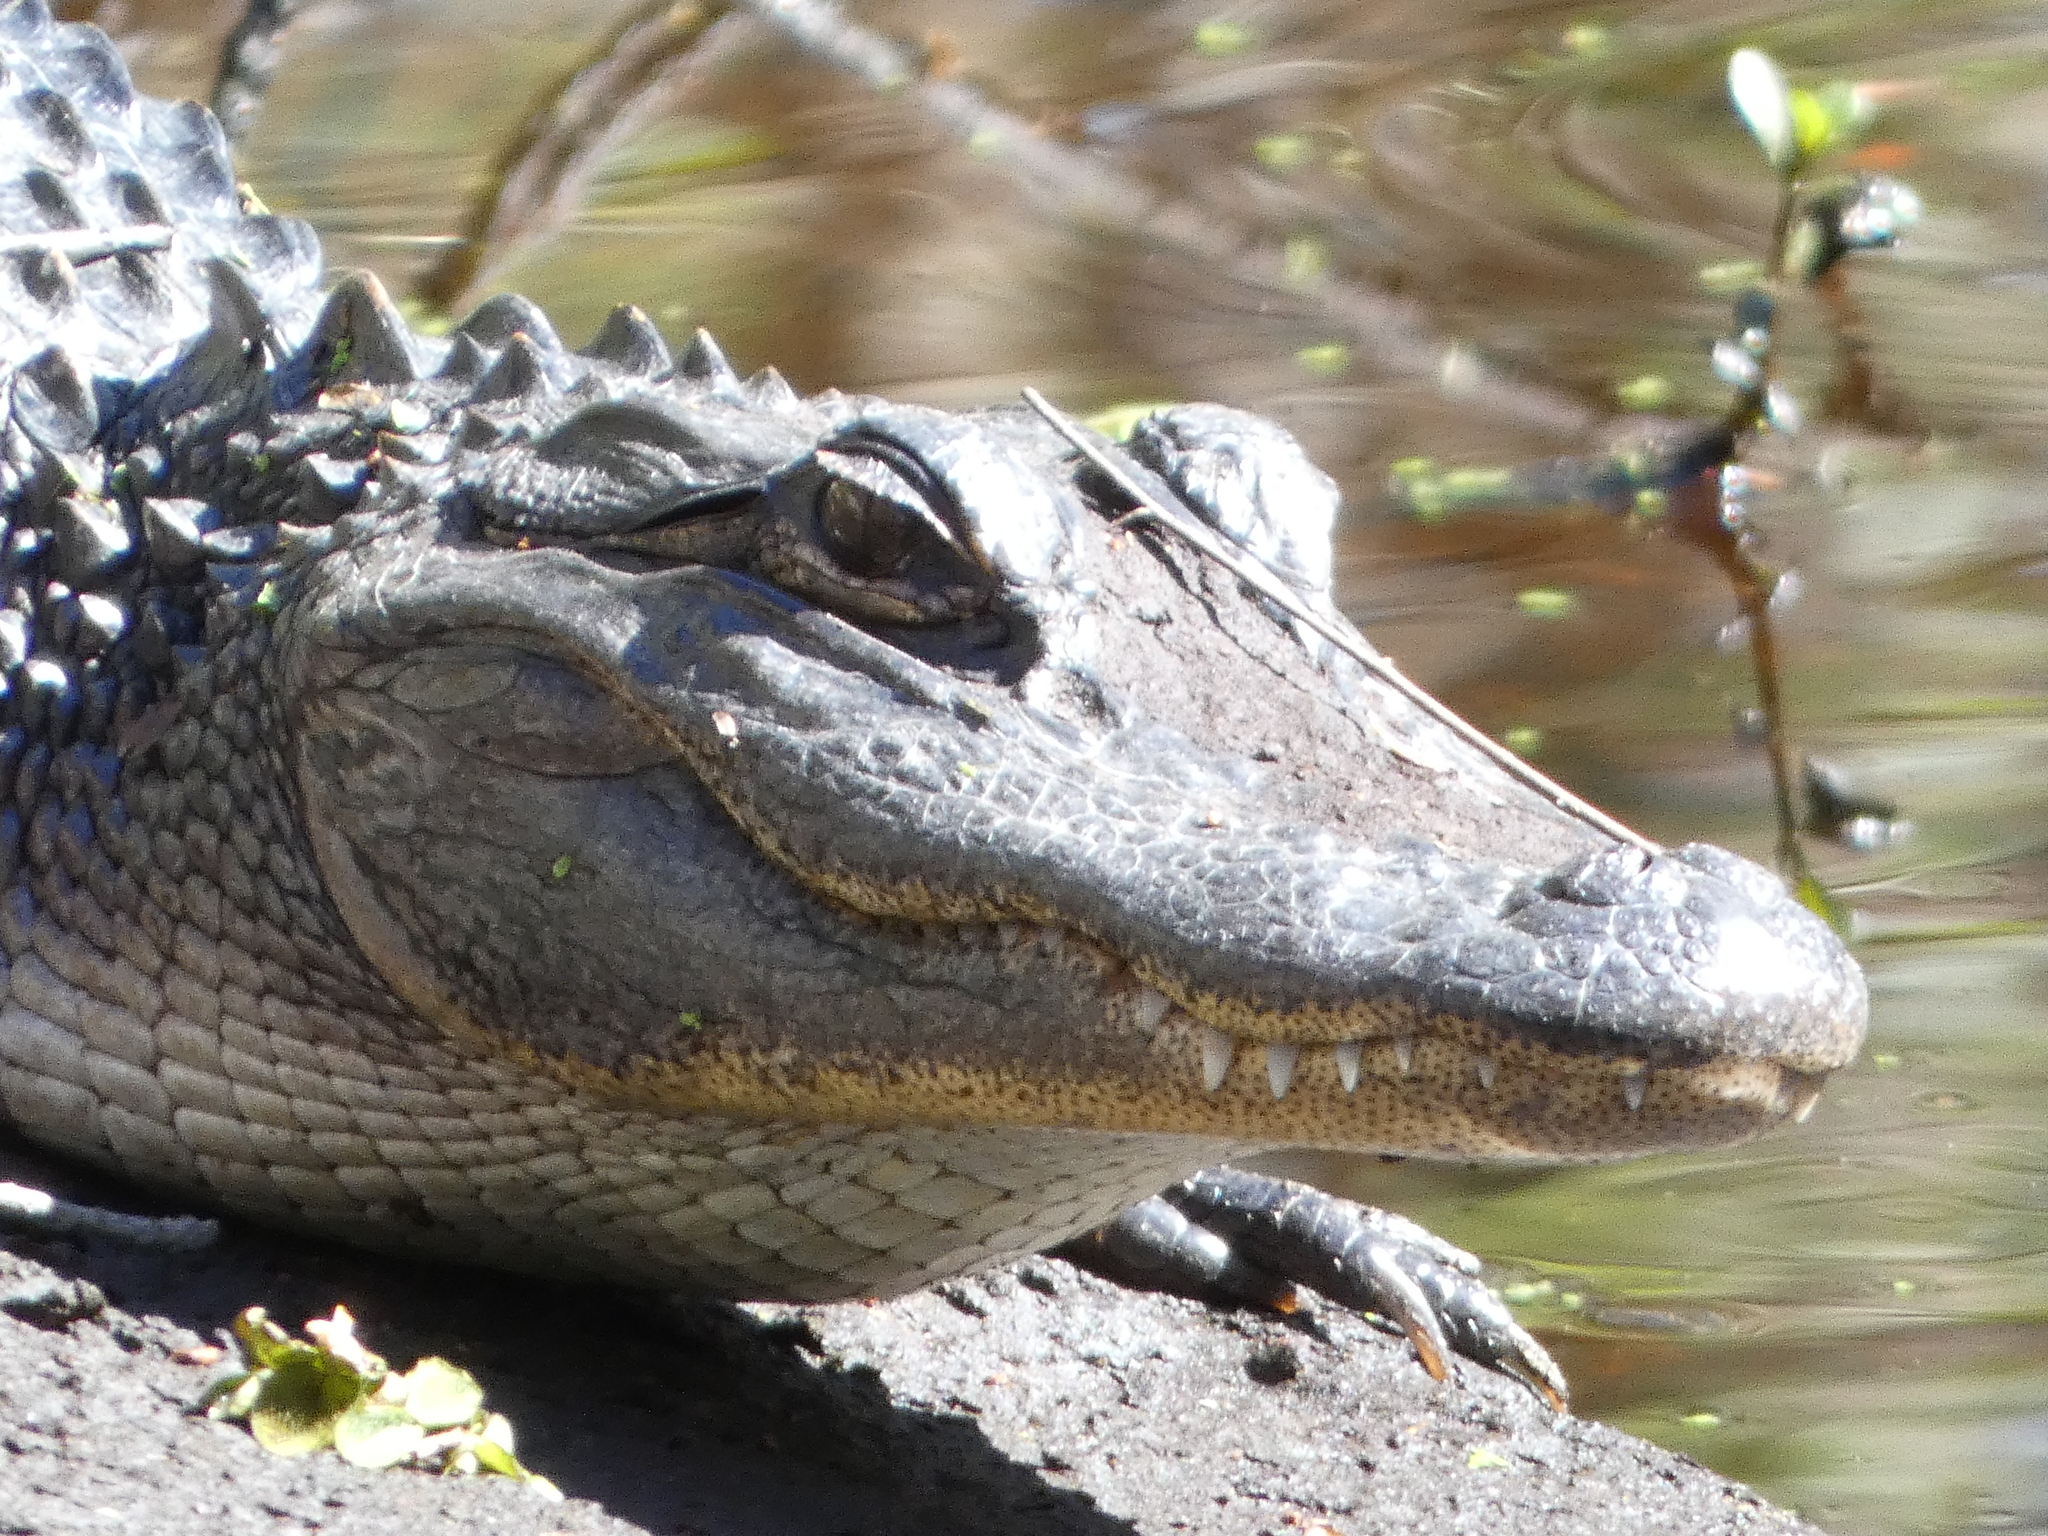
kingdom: Animalia
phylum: Chordata
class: Crocodylia
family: Alligatoridae
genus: Alligator
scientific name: Alligator mississippiensis
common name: American alligator
